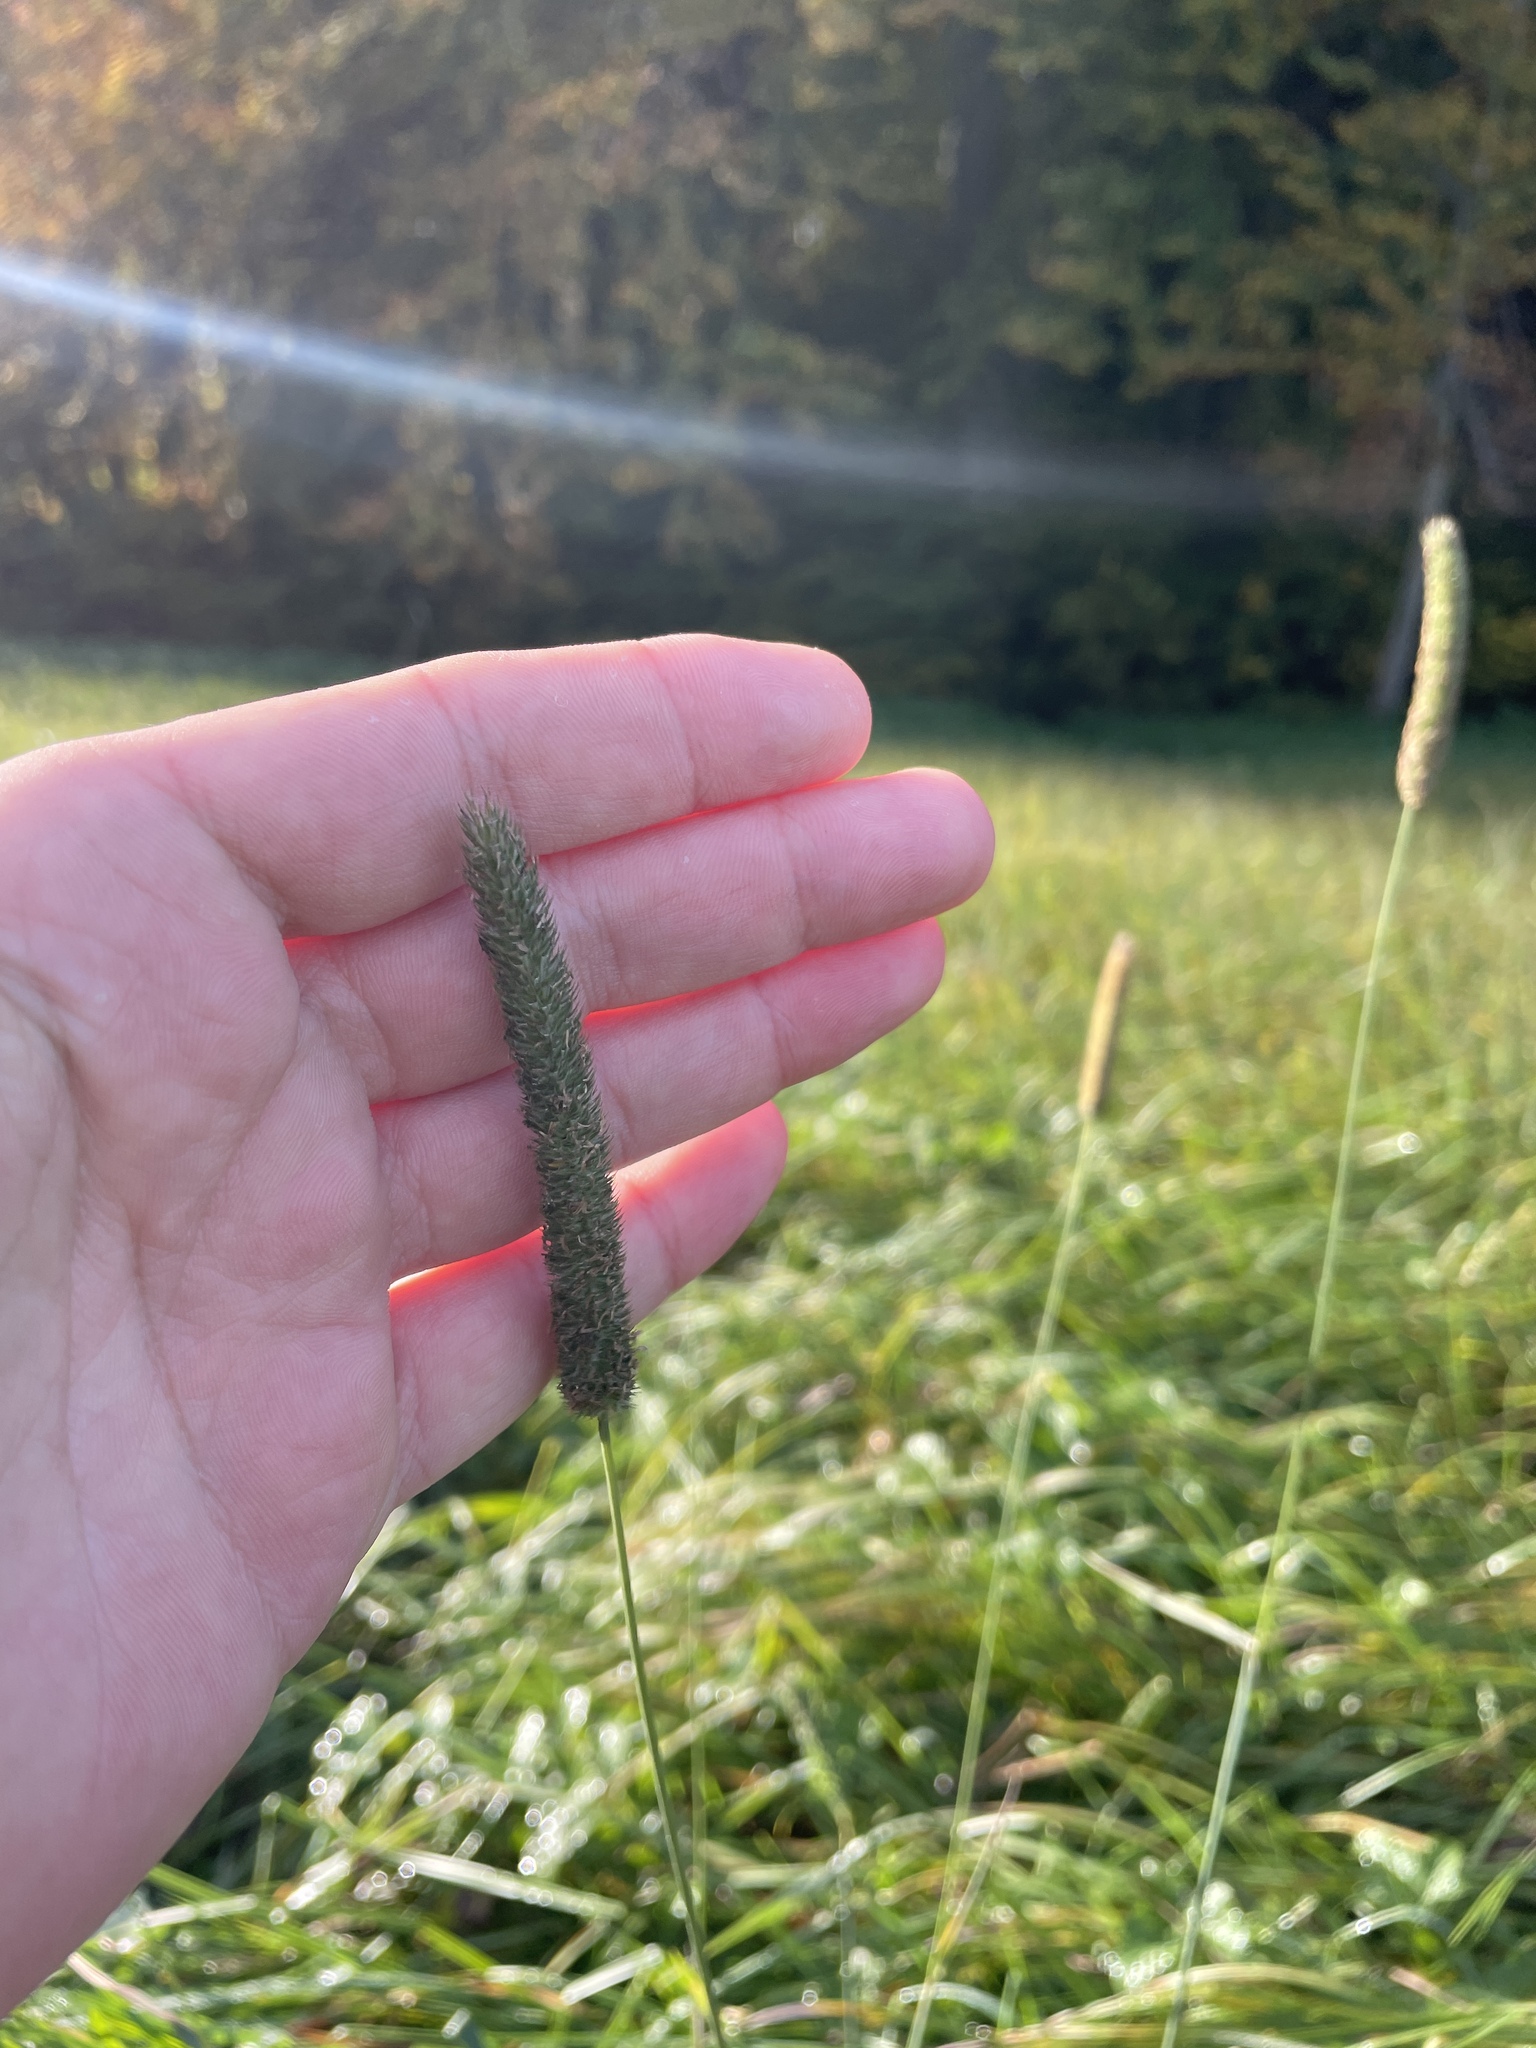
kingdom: Plantae
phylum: Tracheophyta
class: Liliopsida
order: Poales
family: Poaceae
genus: Phleum
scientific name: Phleum pratense
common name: Timothy grass
